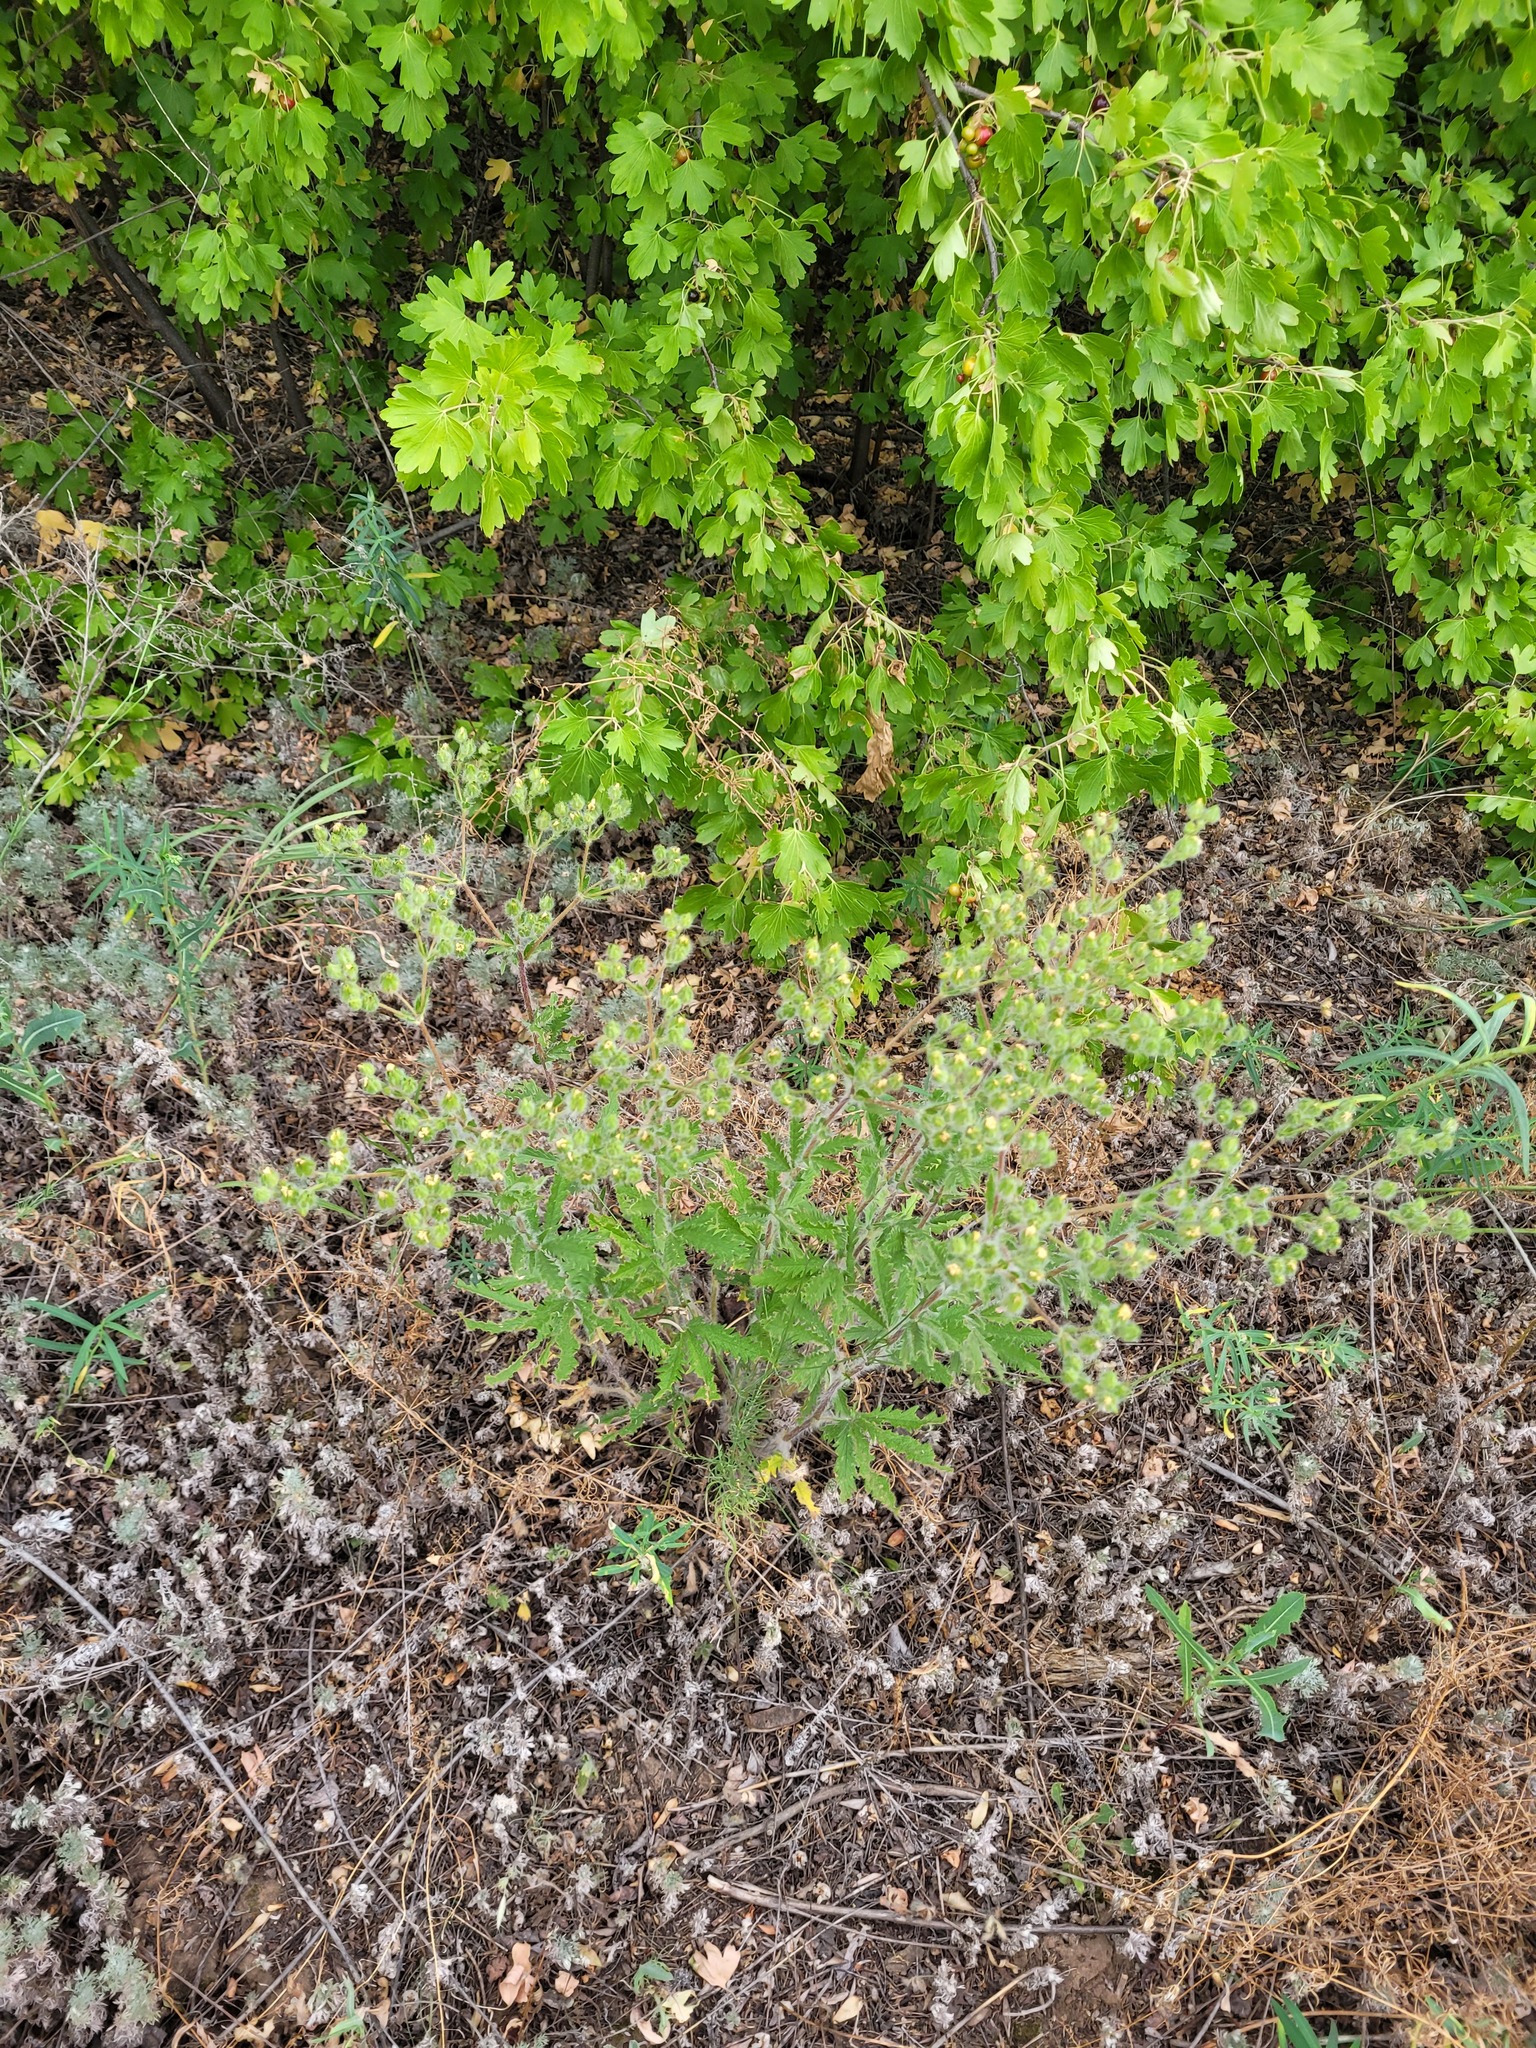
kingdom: Plantae
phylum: Tracheophyta
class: Magnoliopsida
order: Rosales
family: Rosaceae
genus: Potentilla
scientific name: Potentilla recta
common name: Sulphur cinquefoil
